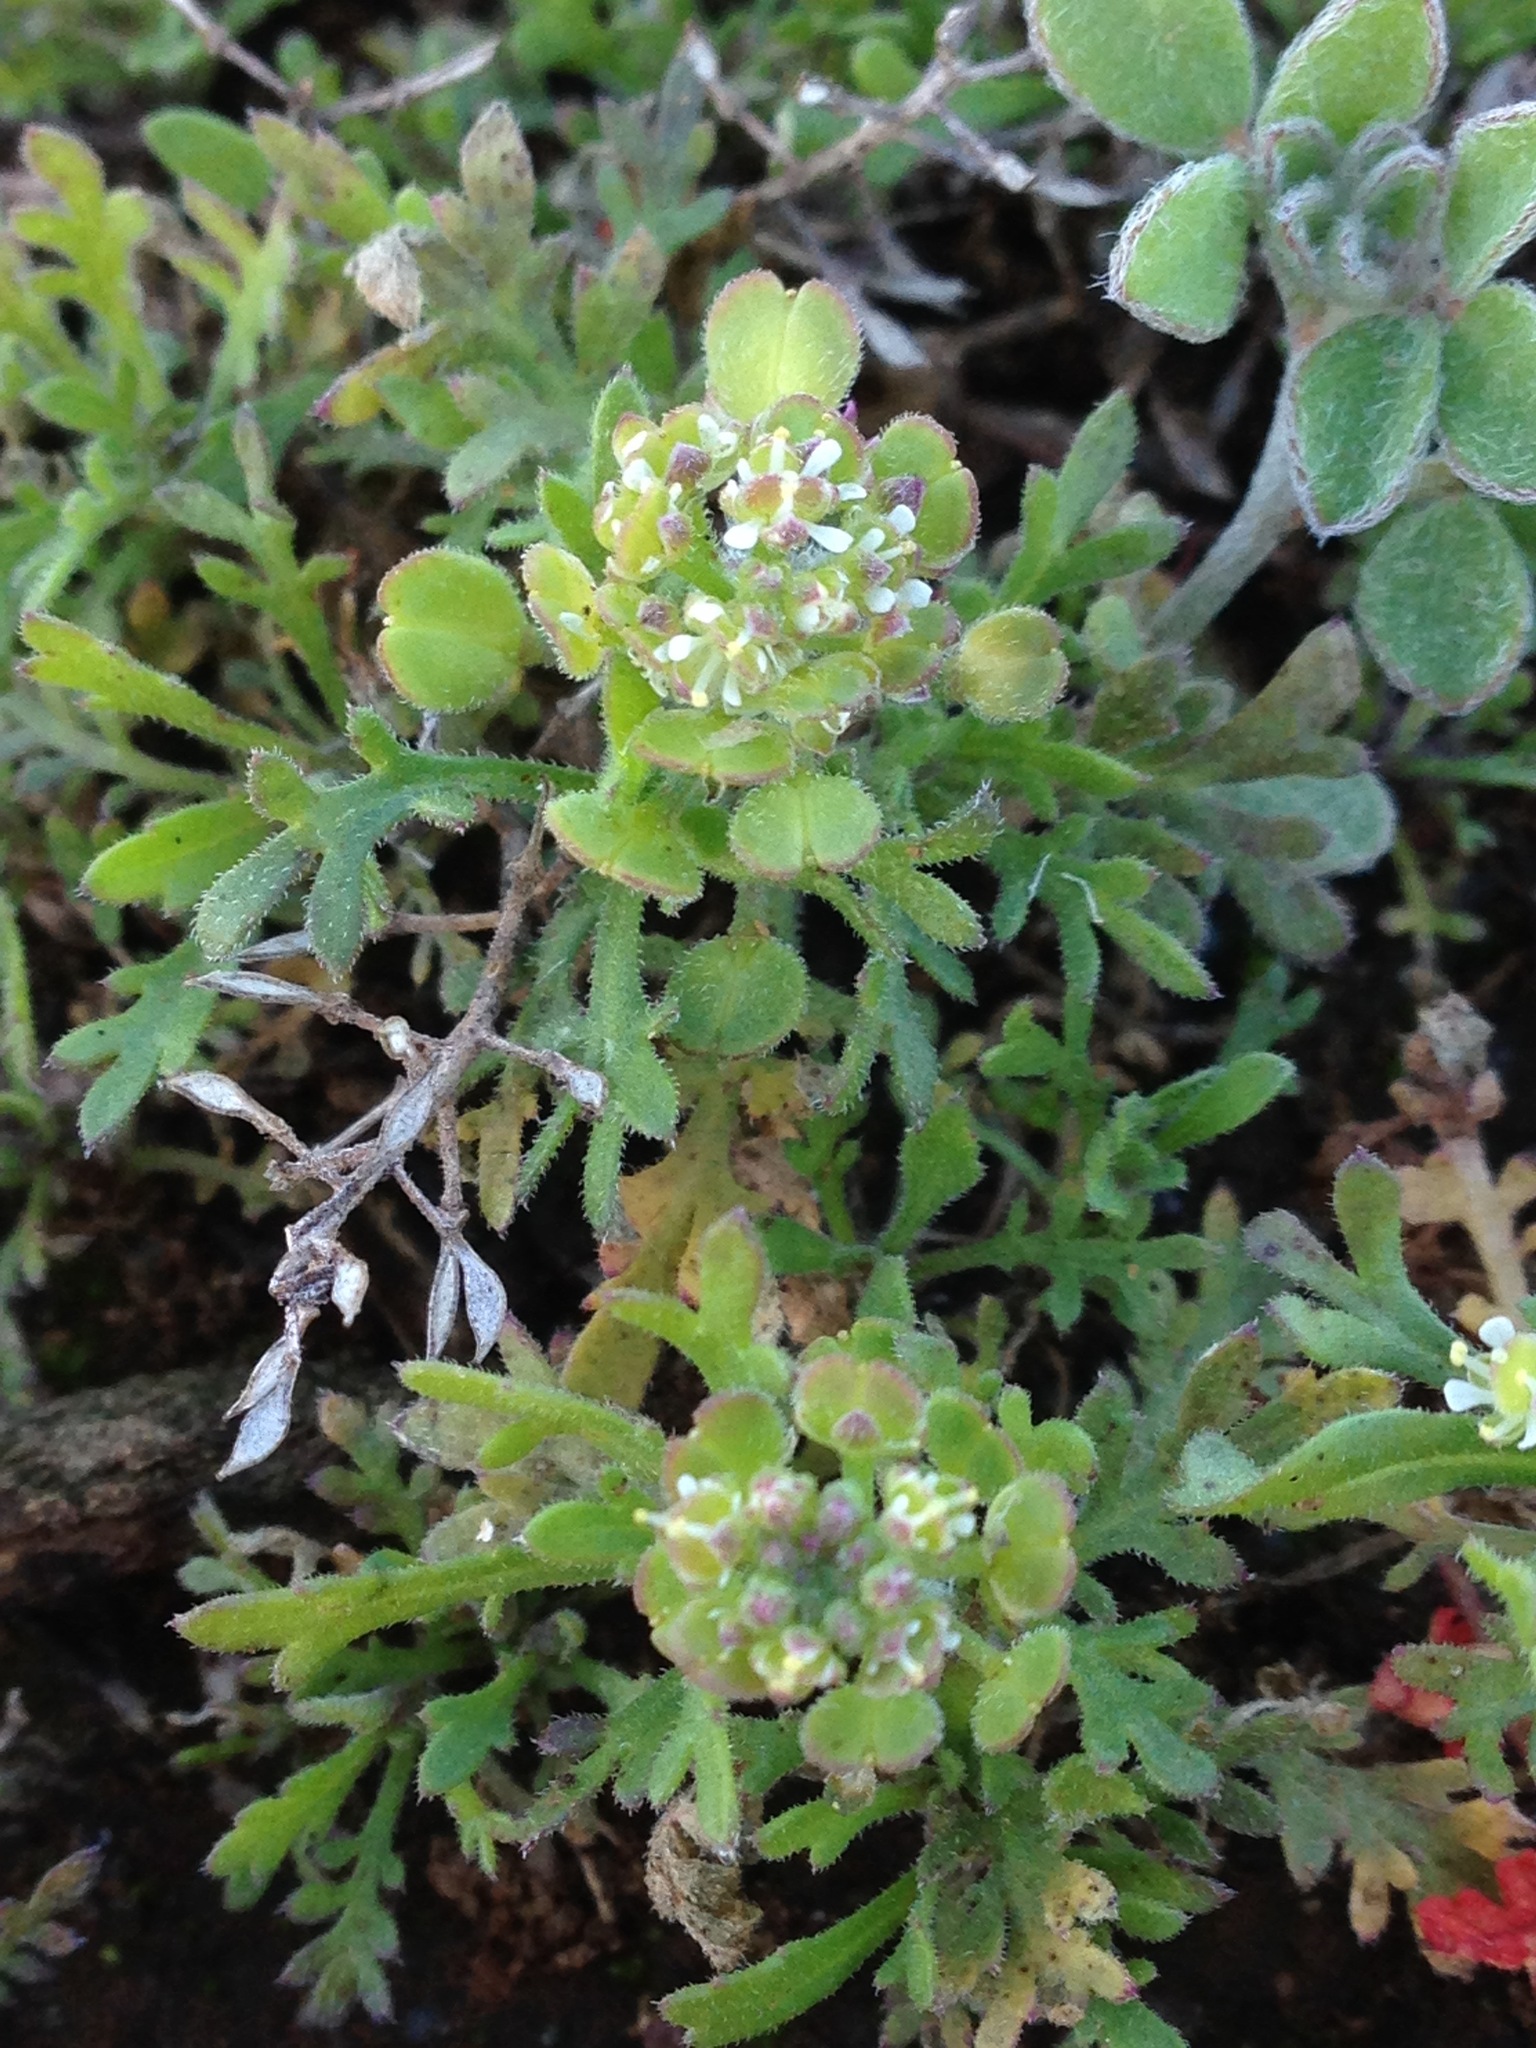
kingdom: Plantae
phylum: Tracheophyta
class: Magnoliopsida
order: Brassicales
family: Brassicaceae
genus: Lepidium
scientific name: Lepidium lasiocarpum
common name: Hairy-pod pepperwort
